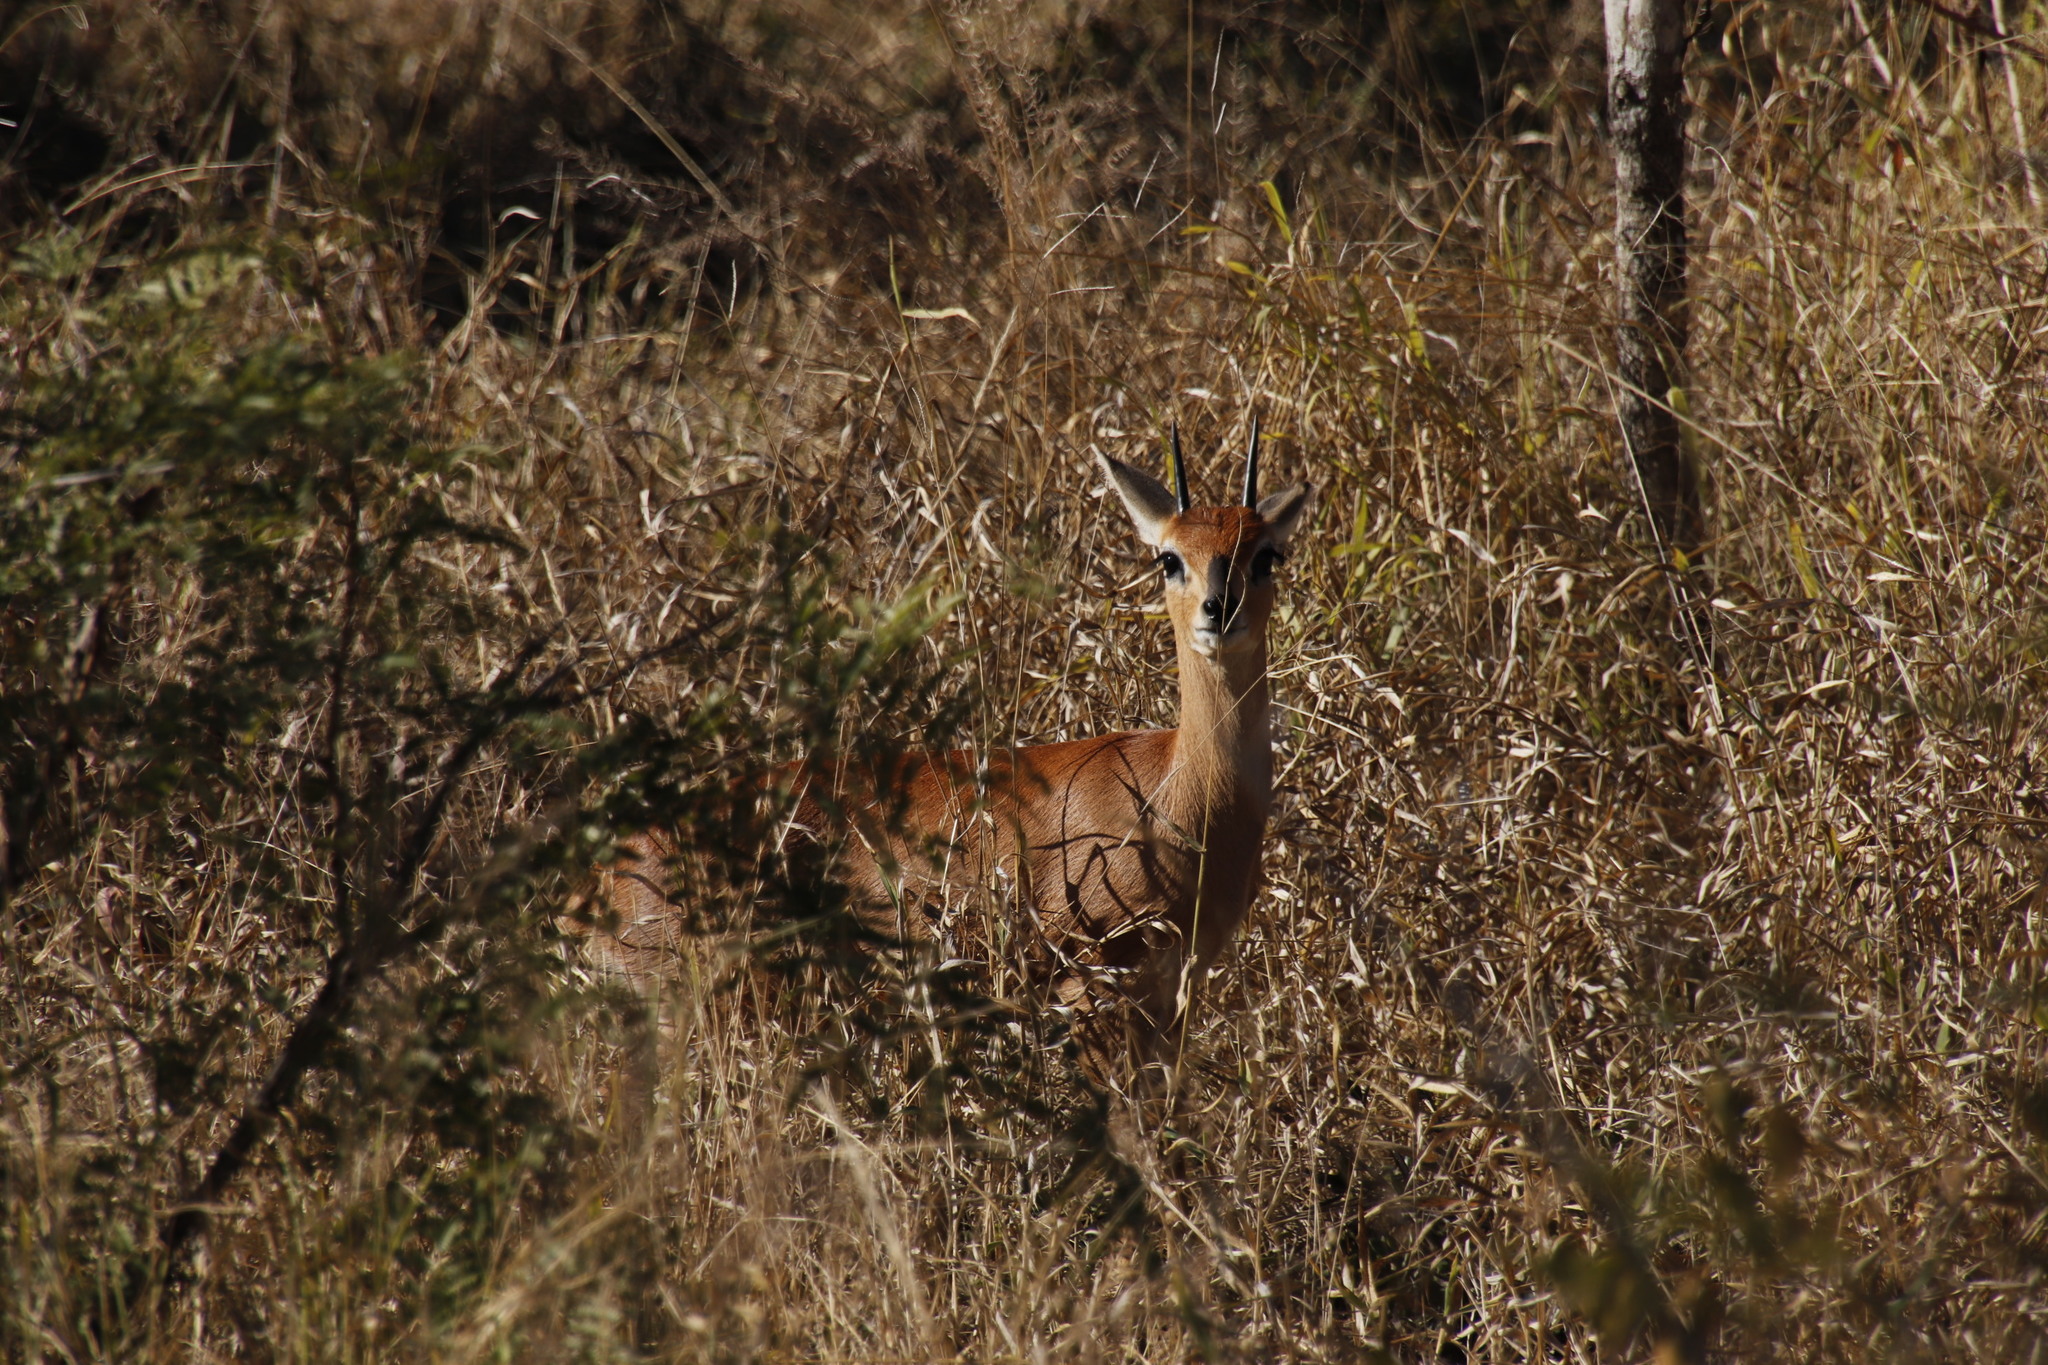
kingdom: Animalia
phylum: Chordata
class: Mammalia
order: Artiodactyla
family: Bovidae
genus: Raphicerus
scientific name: Raphicerus campestris
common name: Steenbok
